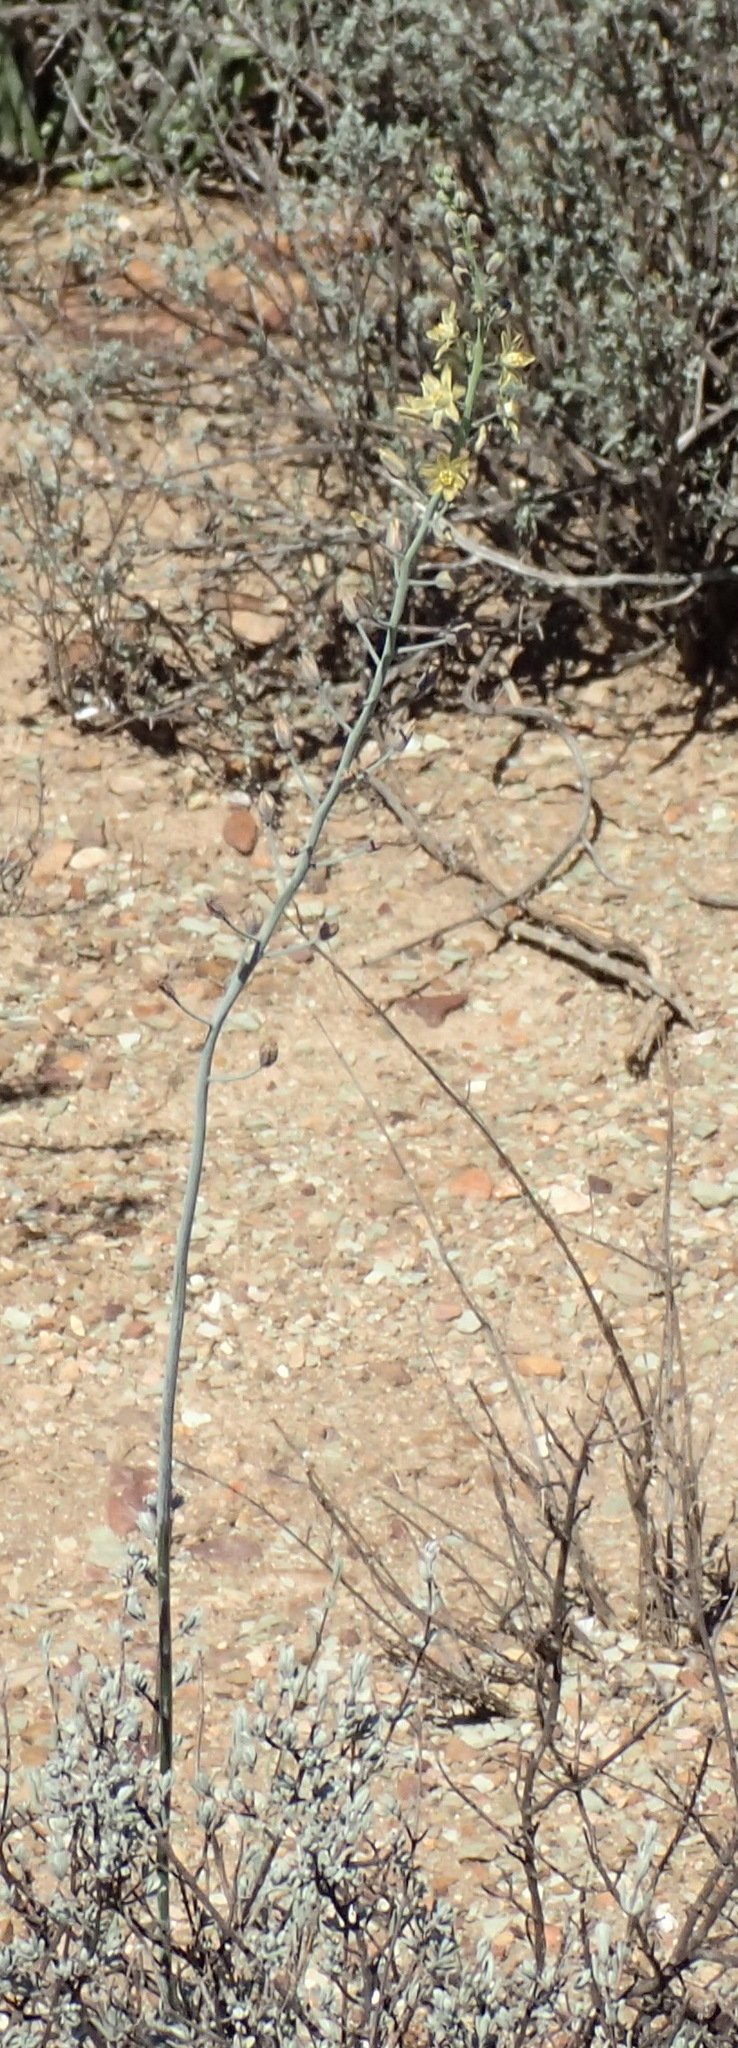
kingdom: Plantae
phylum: Tracheophyta
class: Liliopsida
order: Asparagales
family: Asparagaceae
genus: Eriospermum
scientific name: Eriospermum zeyheri
